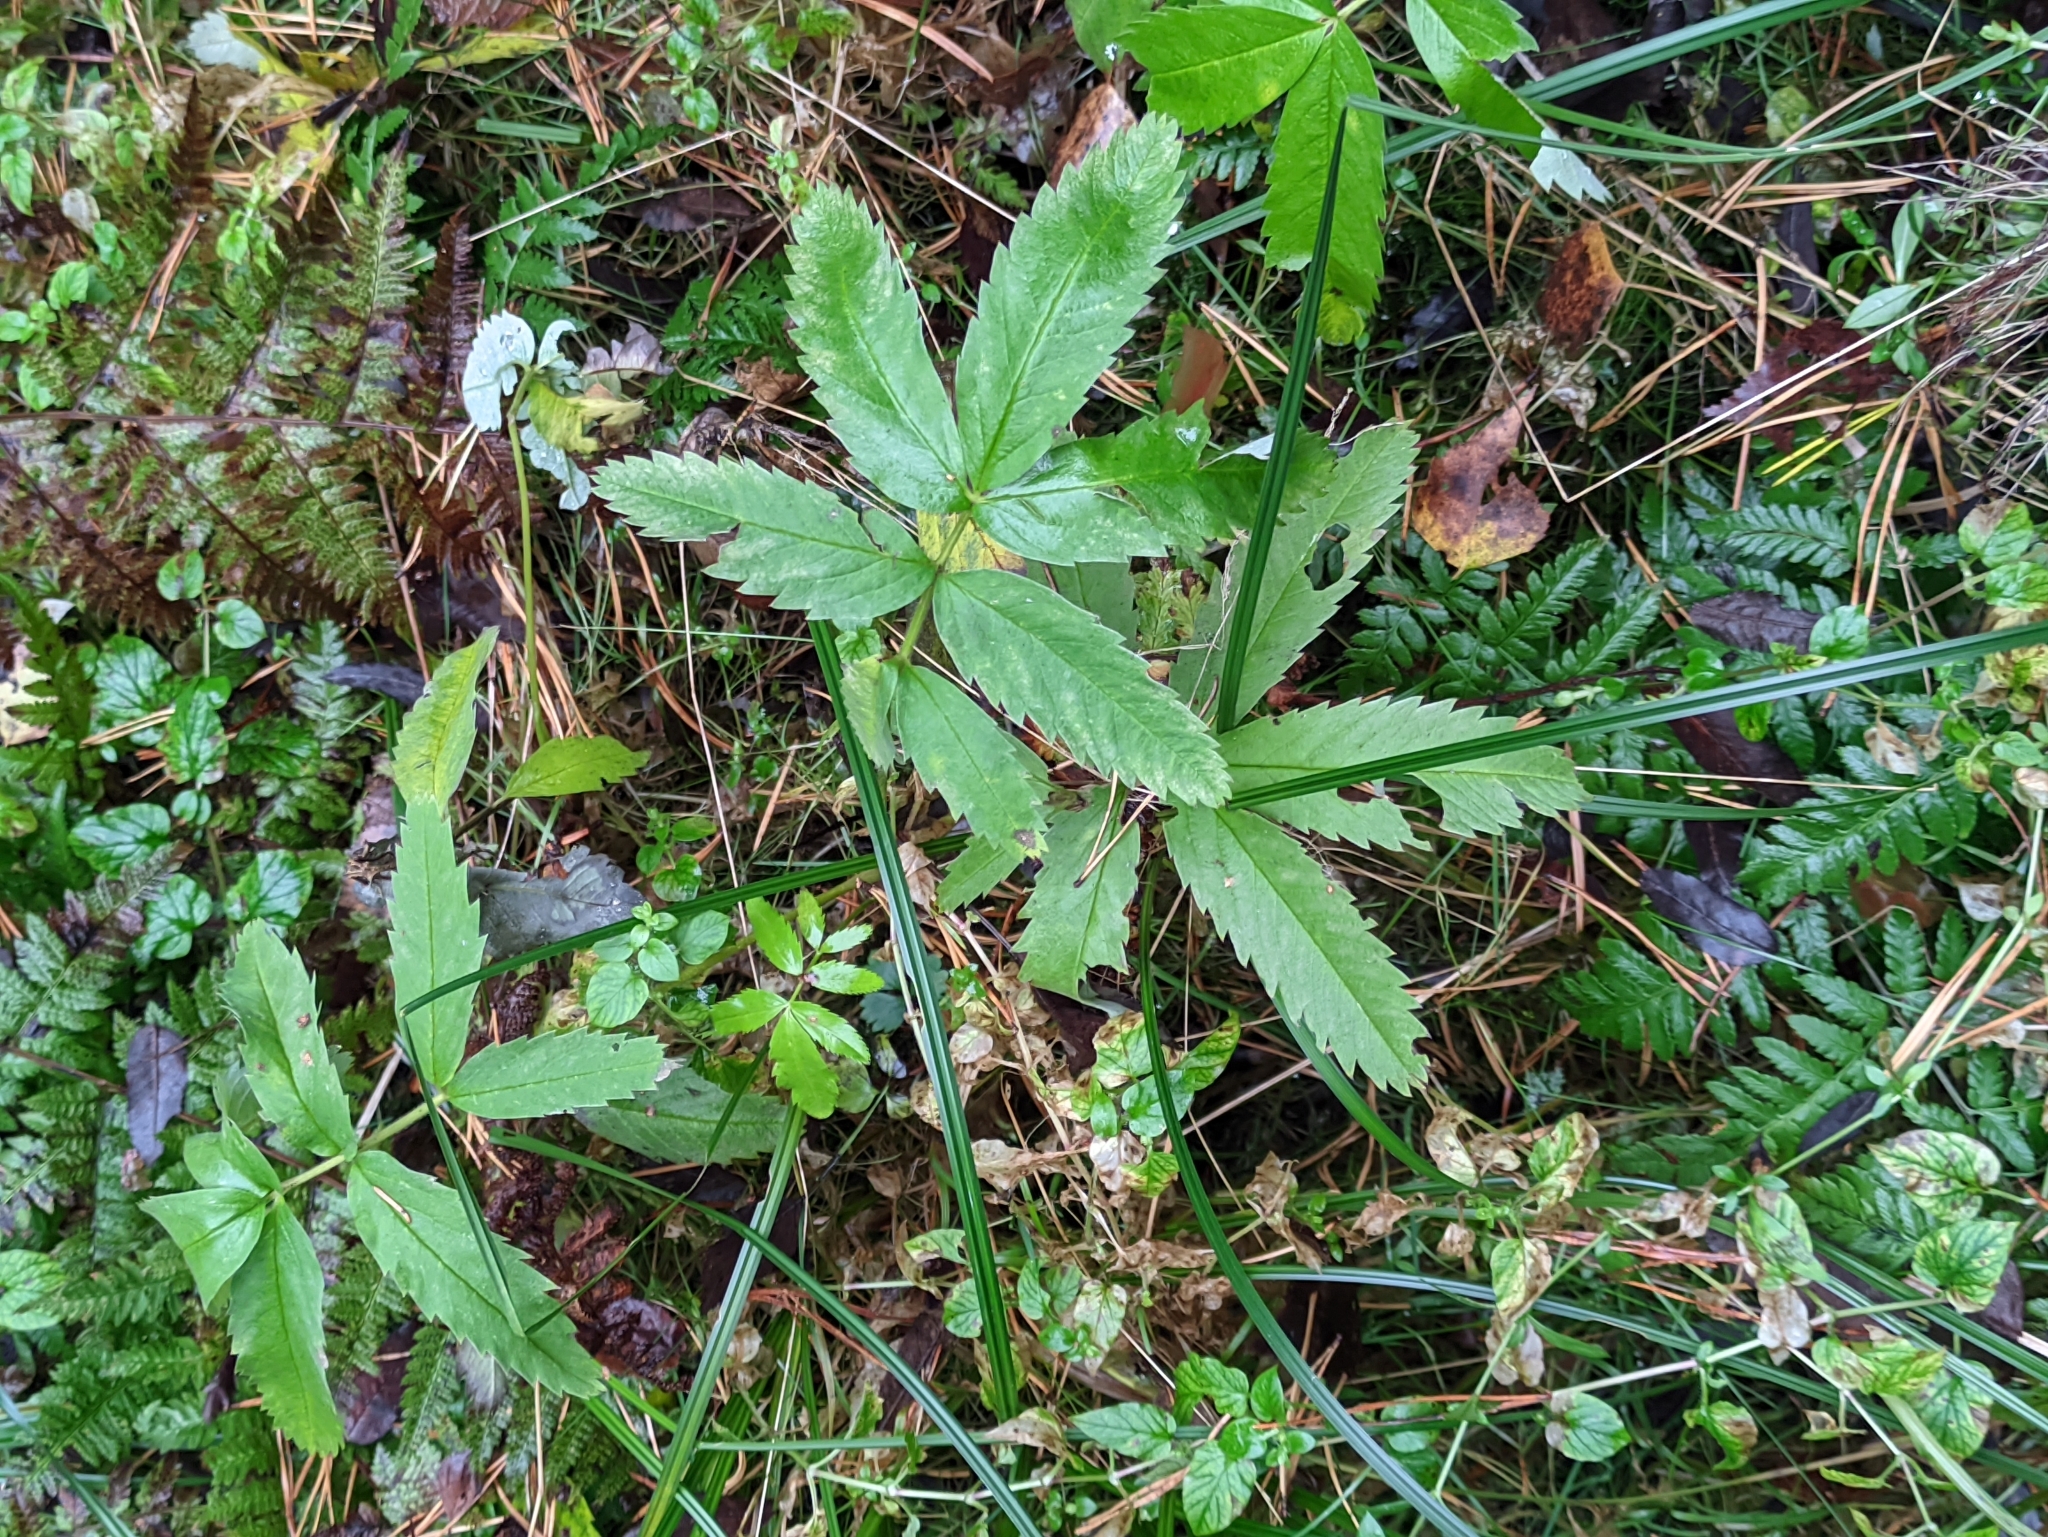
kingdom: Plantae
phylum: Tracheophyta
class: Magnoliopsida
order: Rosales
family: Rosaceae
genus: Comarum
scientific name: Comarum palustre
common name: Marsh cinquefoil
